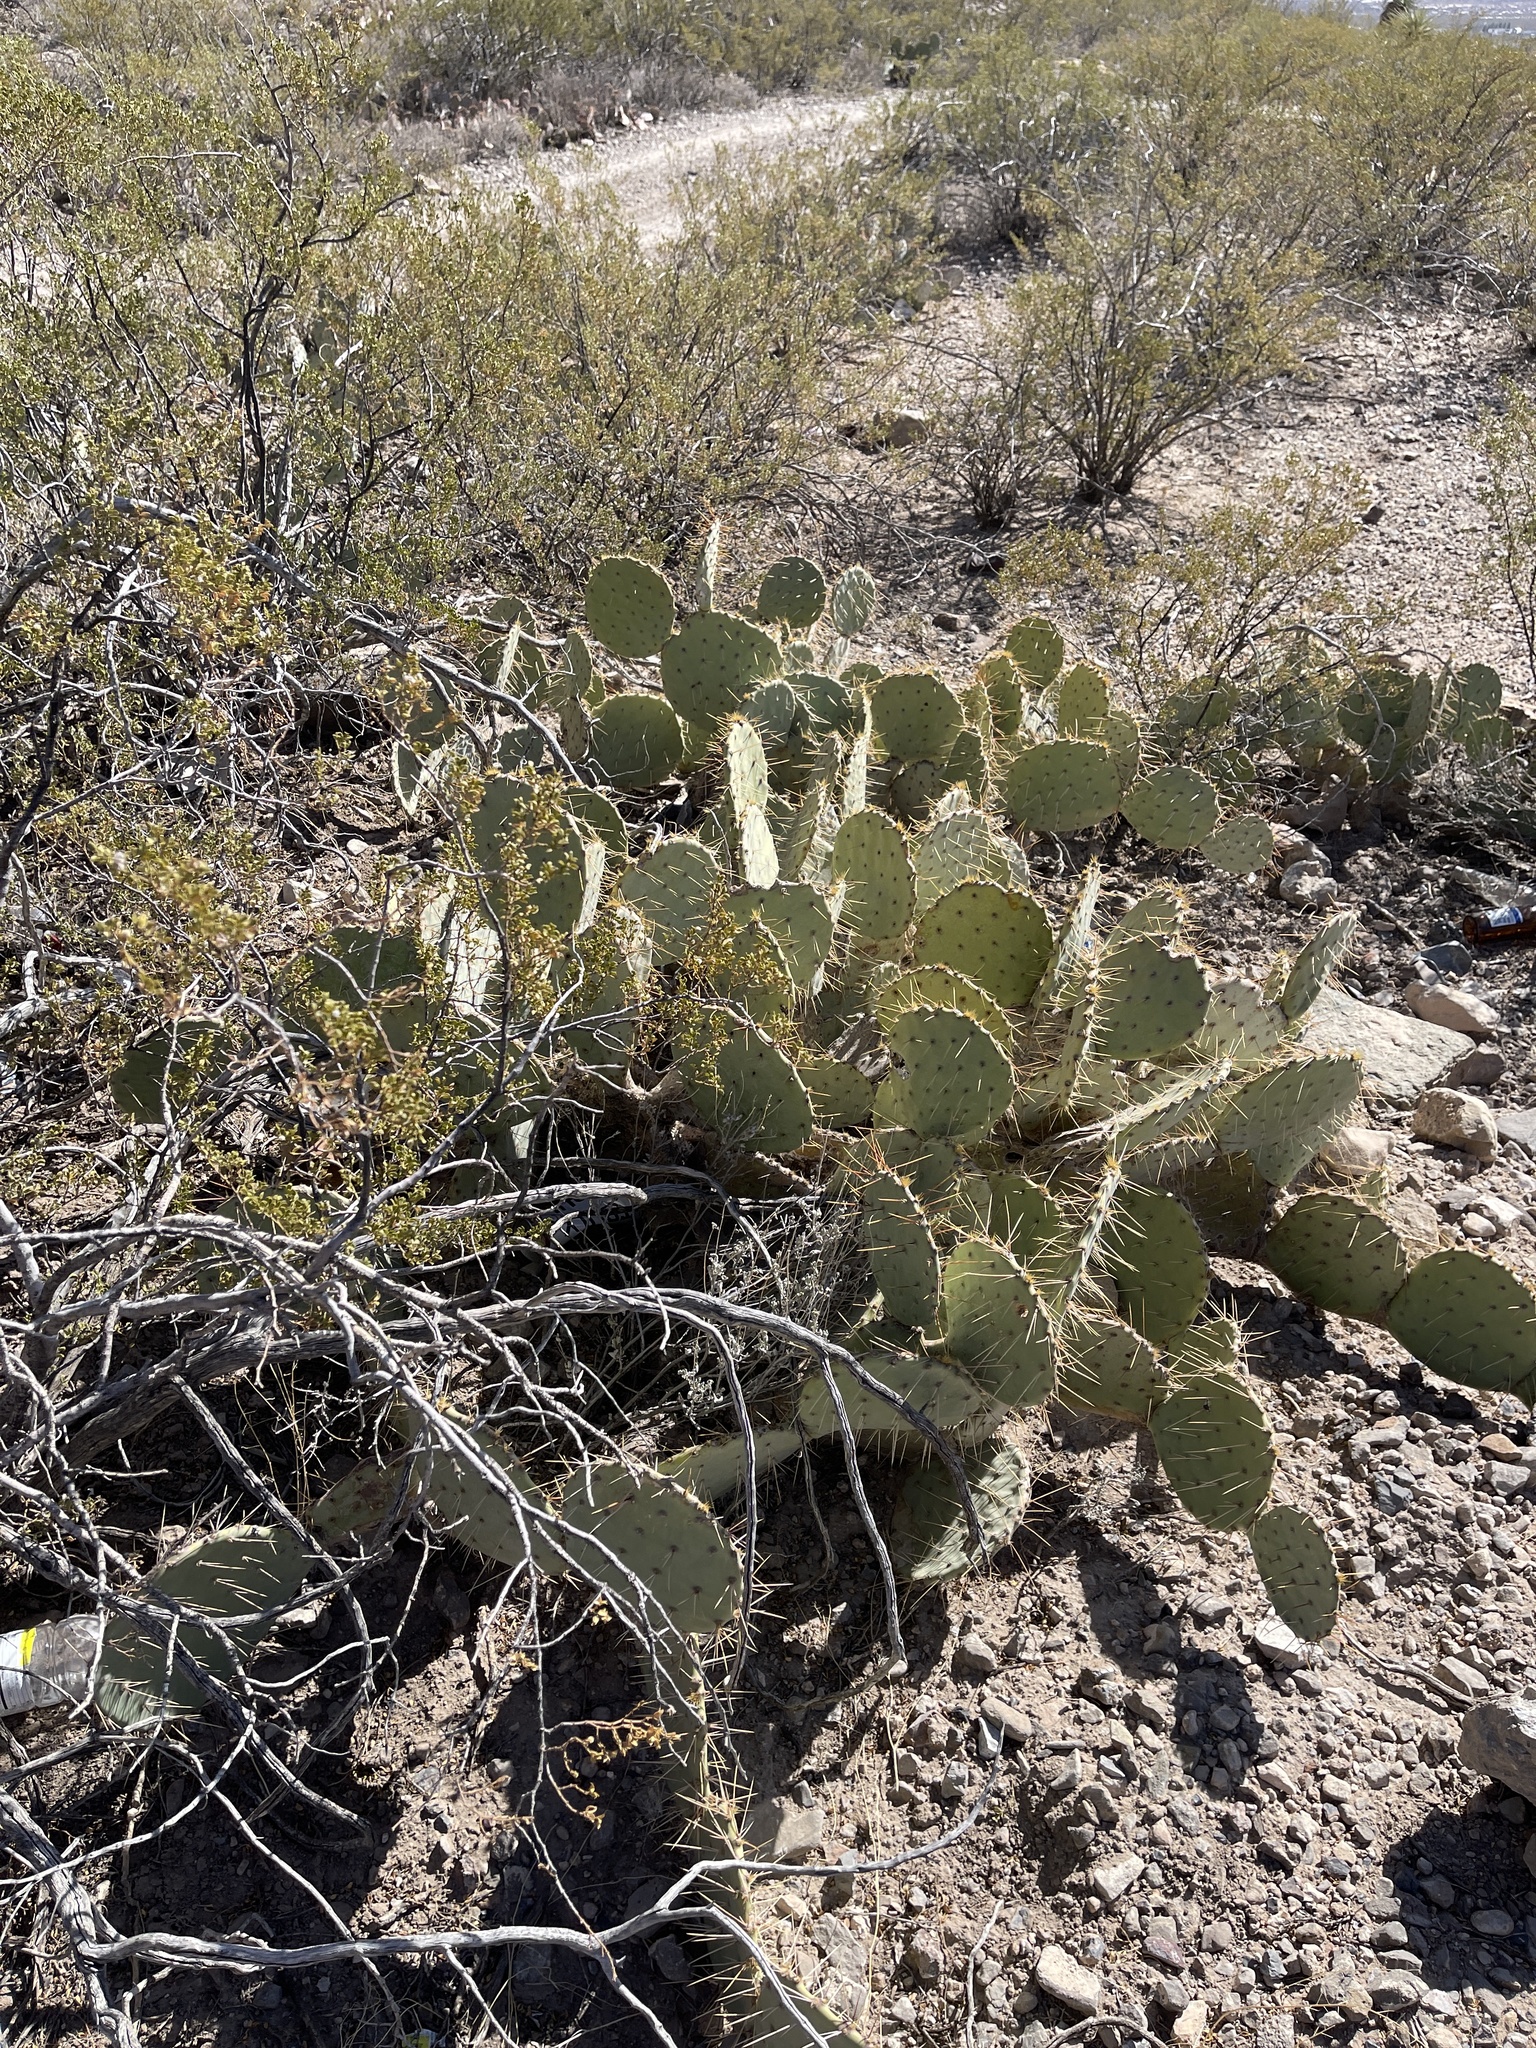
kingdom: Plantae
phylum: Tracheophyta
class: Magnoliopsida
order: Caryophyllales
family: Cactaceae
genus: Opuntia
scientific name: Opuntia engelmannii
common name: Cactus-apple
